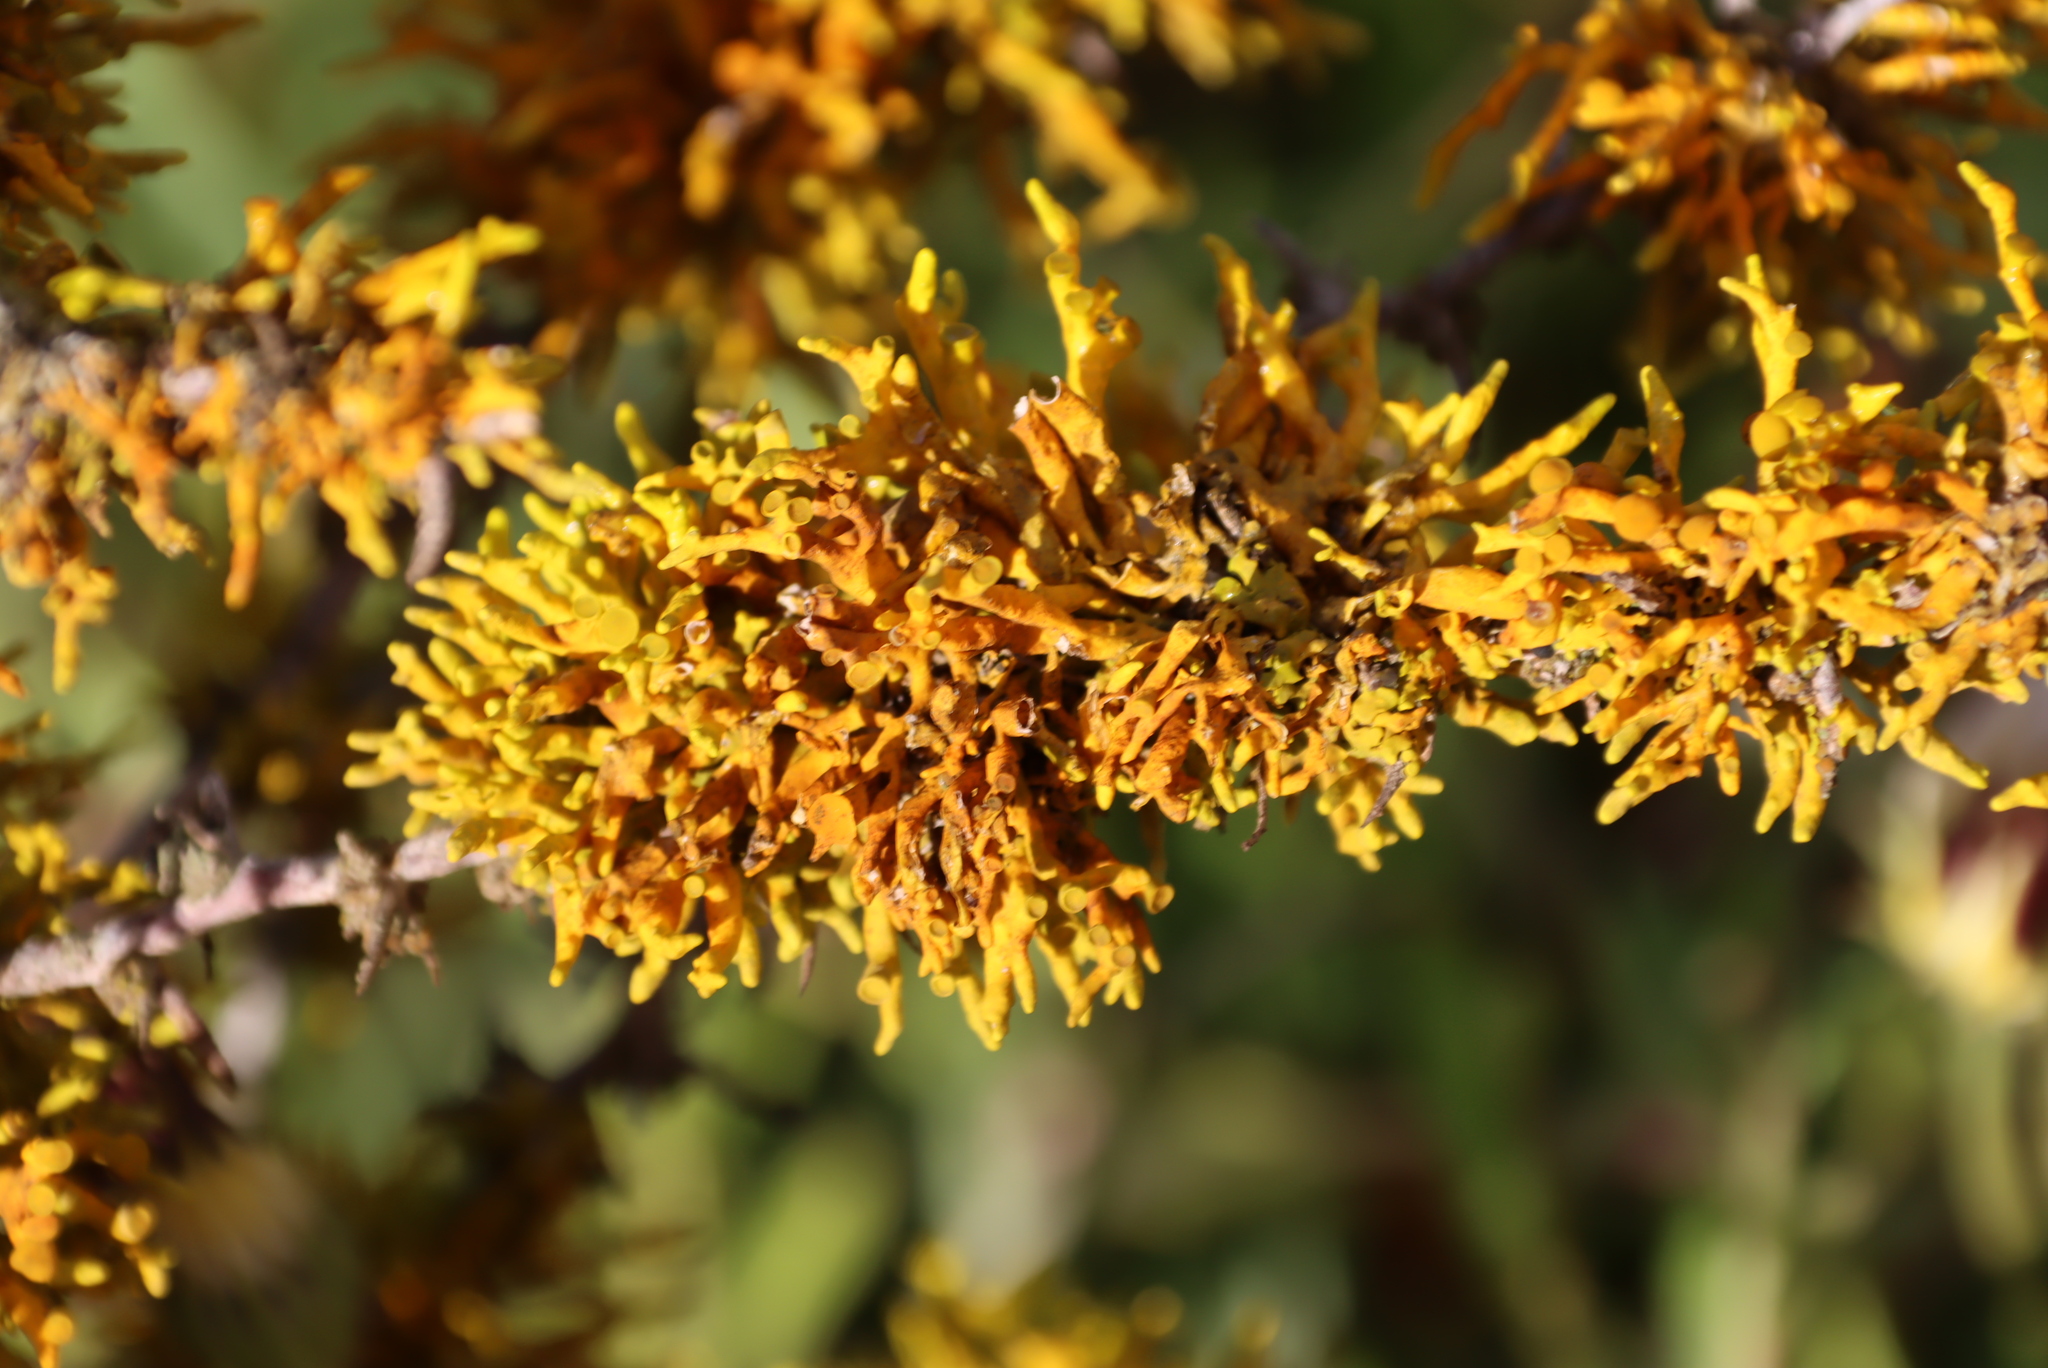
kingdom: Fungi
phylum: Ascomycota
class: Lecanoromycetes
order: Teloschistales
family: Teloschistaceae
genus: Dufourea
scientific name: Dufourea flammea
